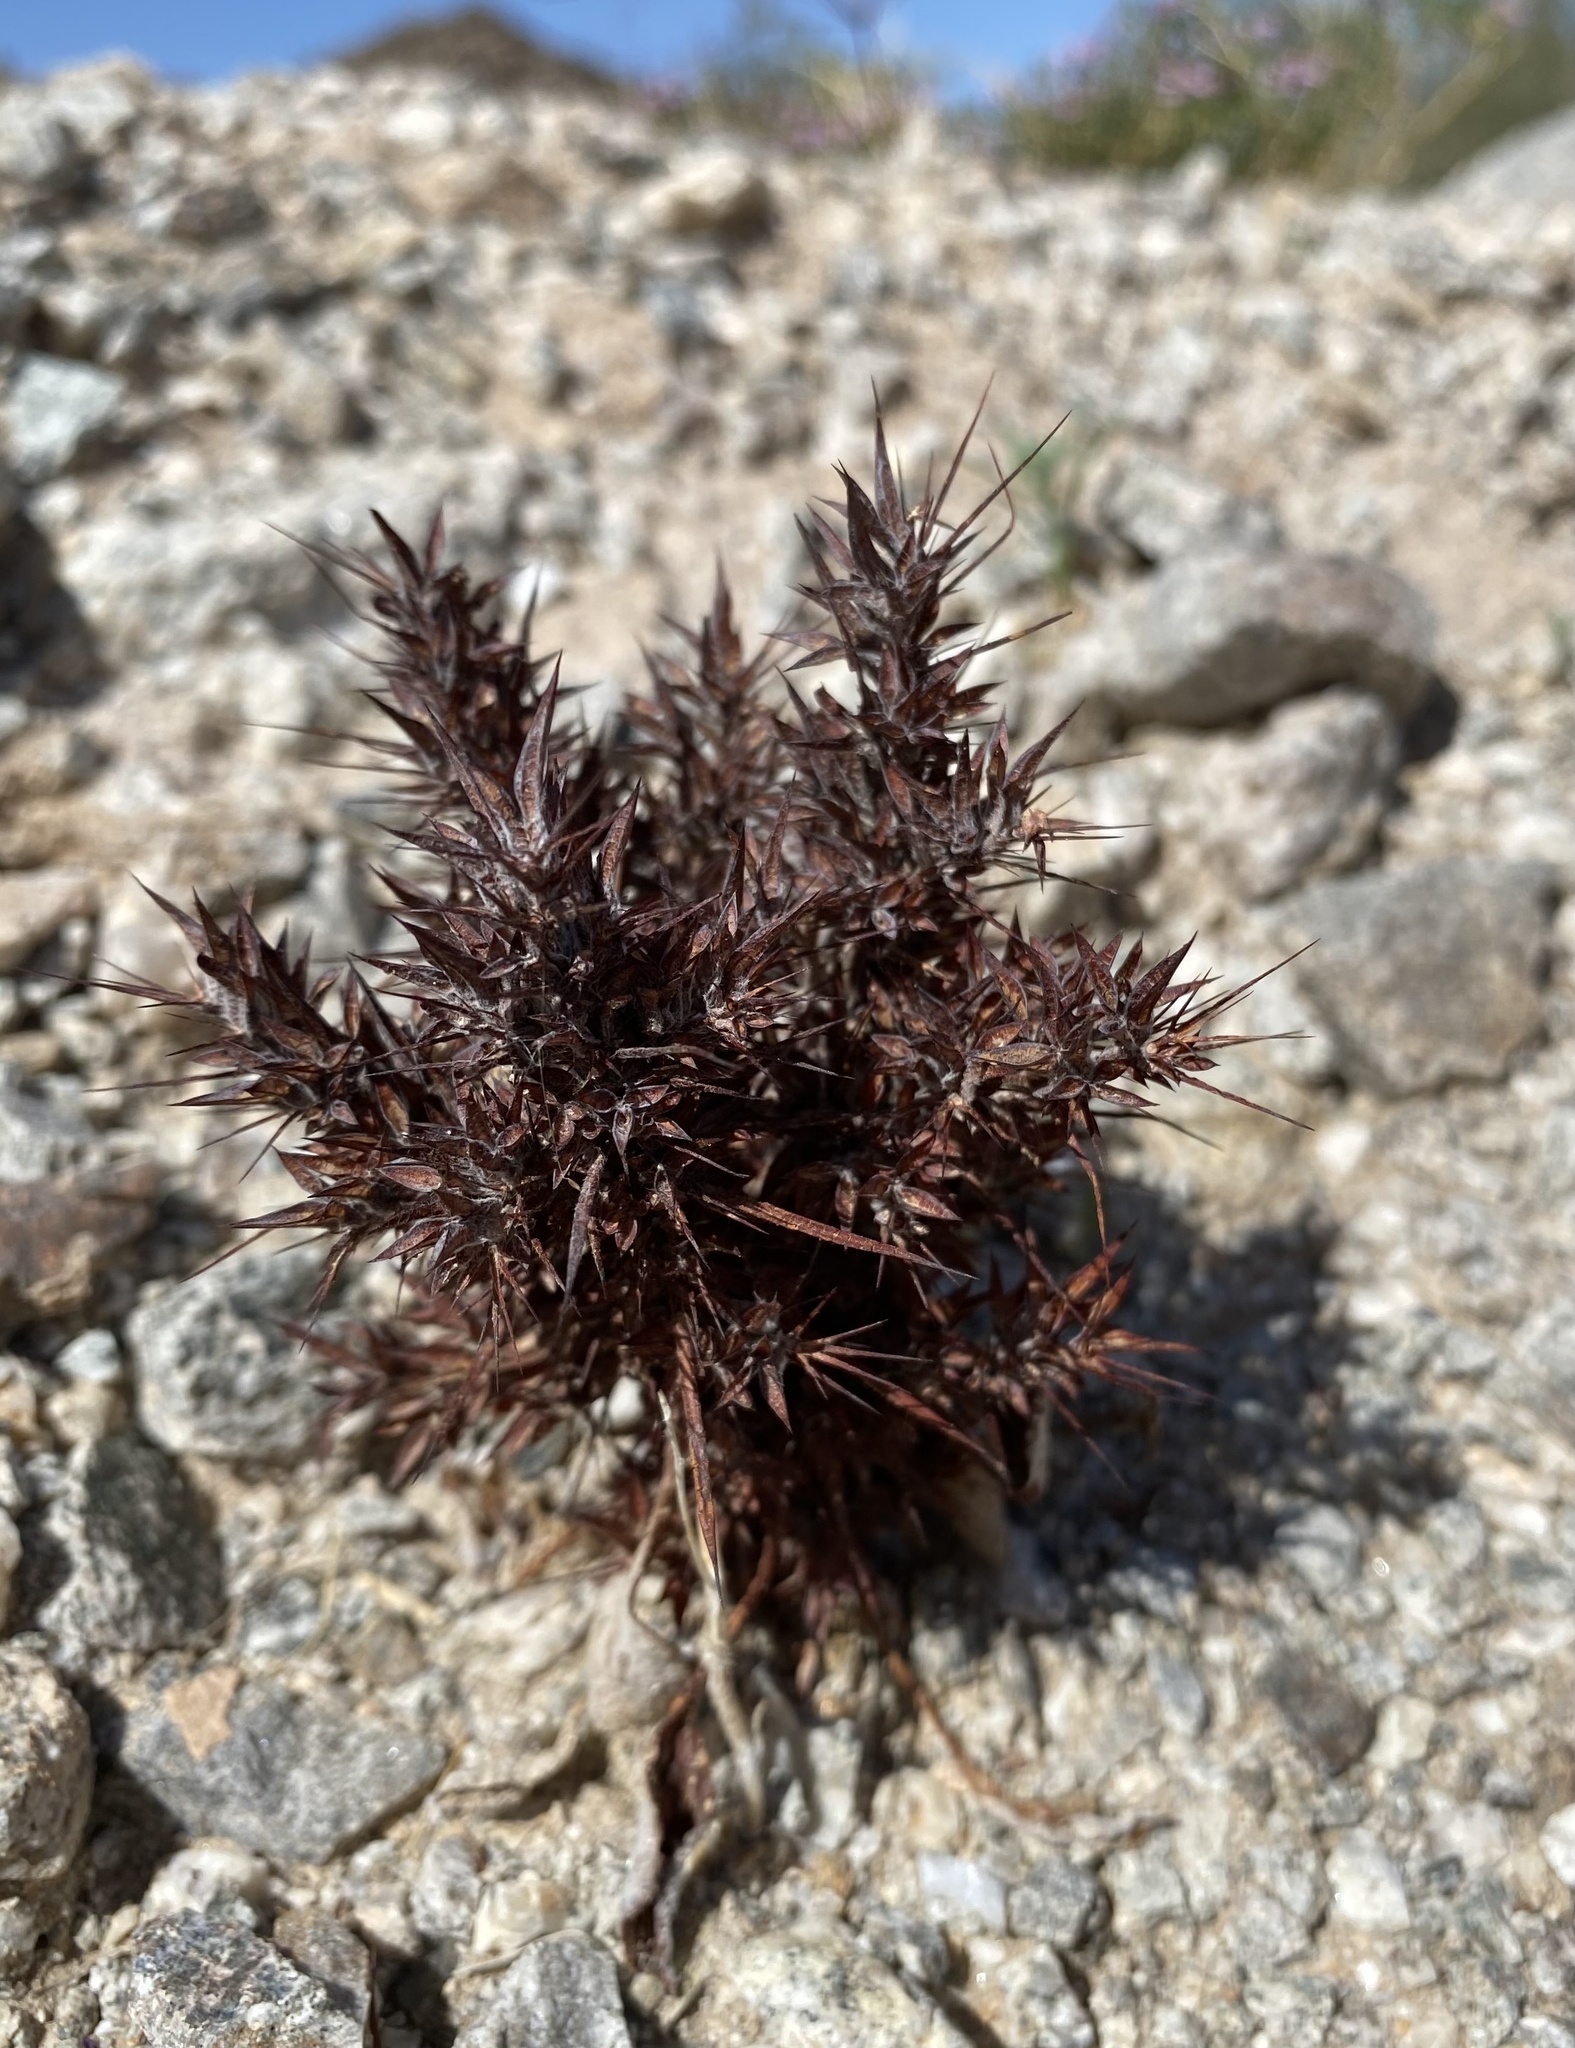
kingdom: Plantae
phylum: Tracheophyta
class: Magnoliopsida
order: Caryophyllales
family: Polygonaceae
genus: Chorizanthe
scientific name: Chorizanthe rigida
